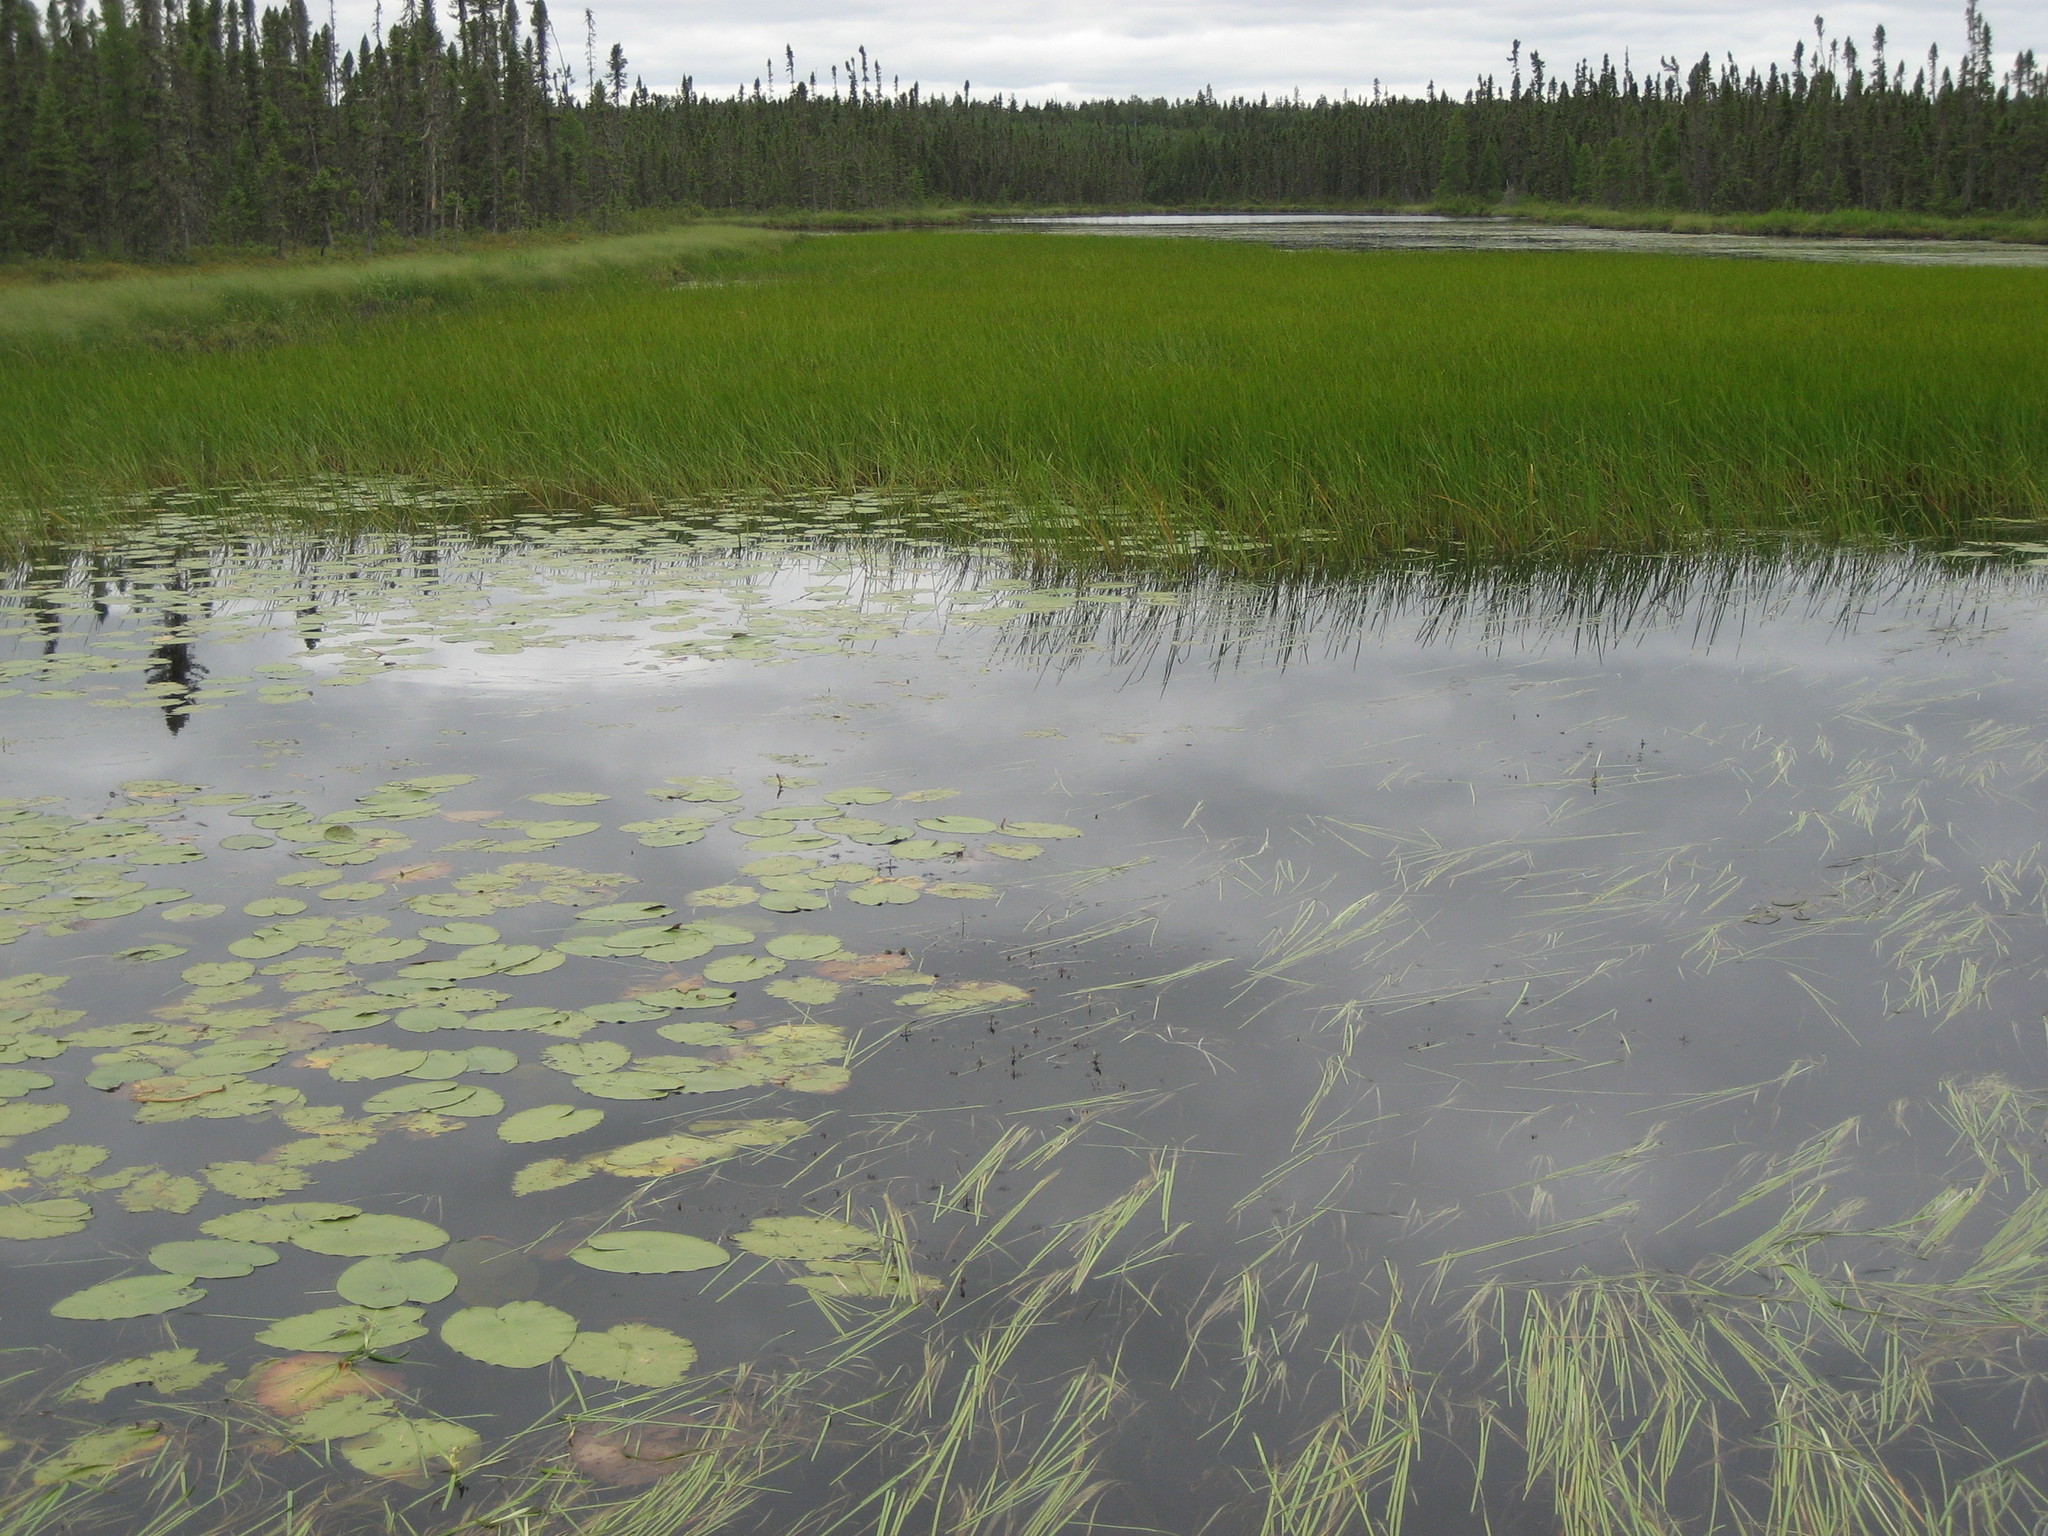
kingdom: Plantae
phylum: Tracheophyta
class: Magnoliopsida
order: Nymphaeales
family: Nymphaeaceae
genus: Nuphar
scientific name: Nuphar variegata
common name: Beaver-root
